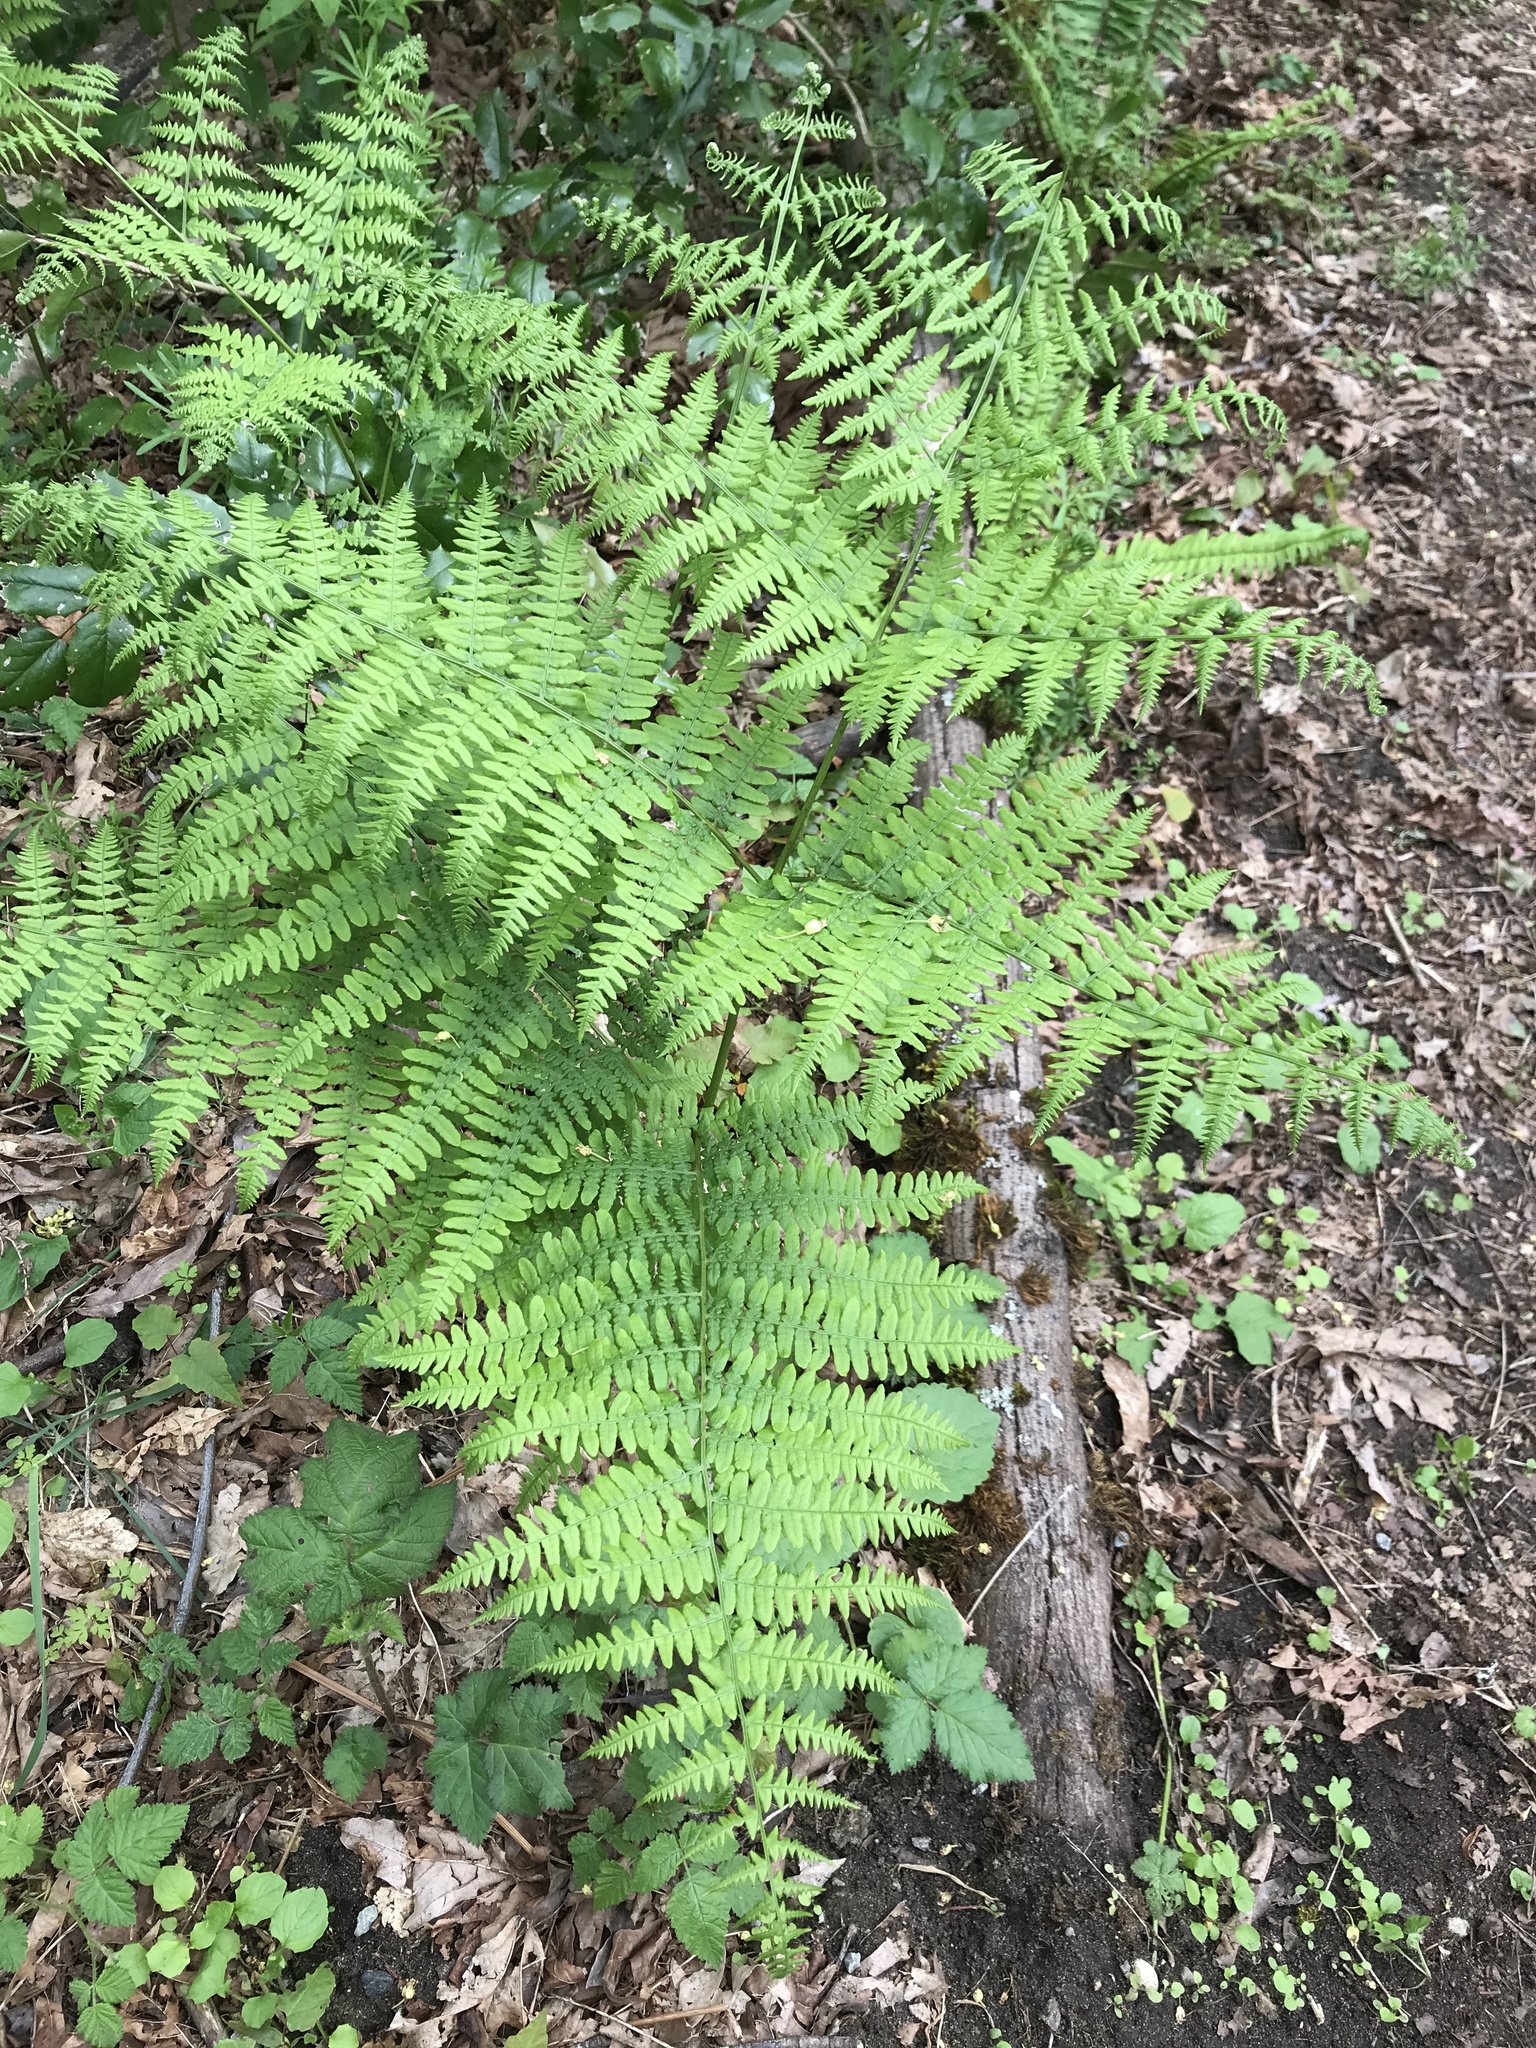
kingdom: Plantae
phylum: Tracheophyta
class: Polypodiopsida
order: Polypodiales
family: Dennstaedtiaceae
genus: Pteridium
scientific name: Pteridium aquilinum
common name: Bracken
